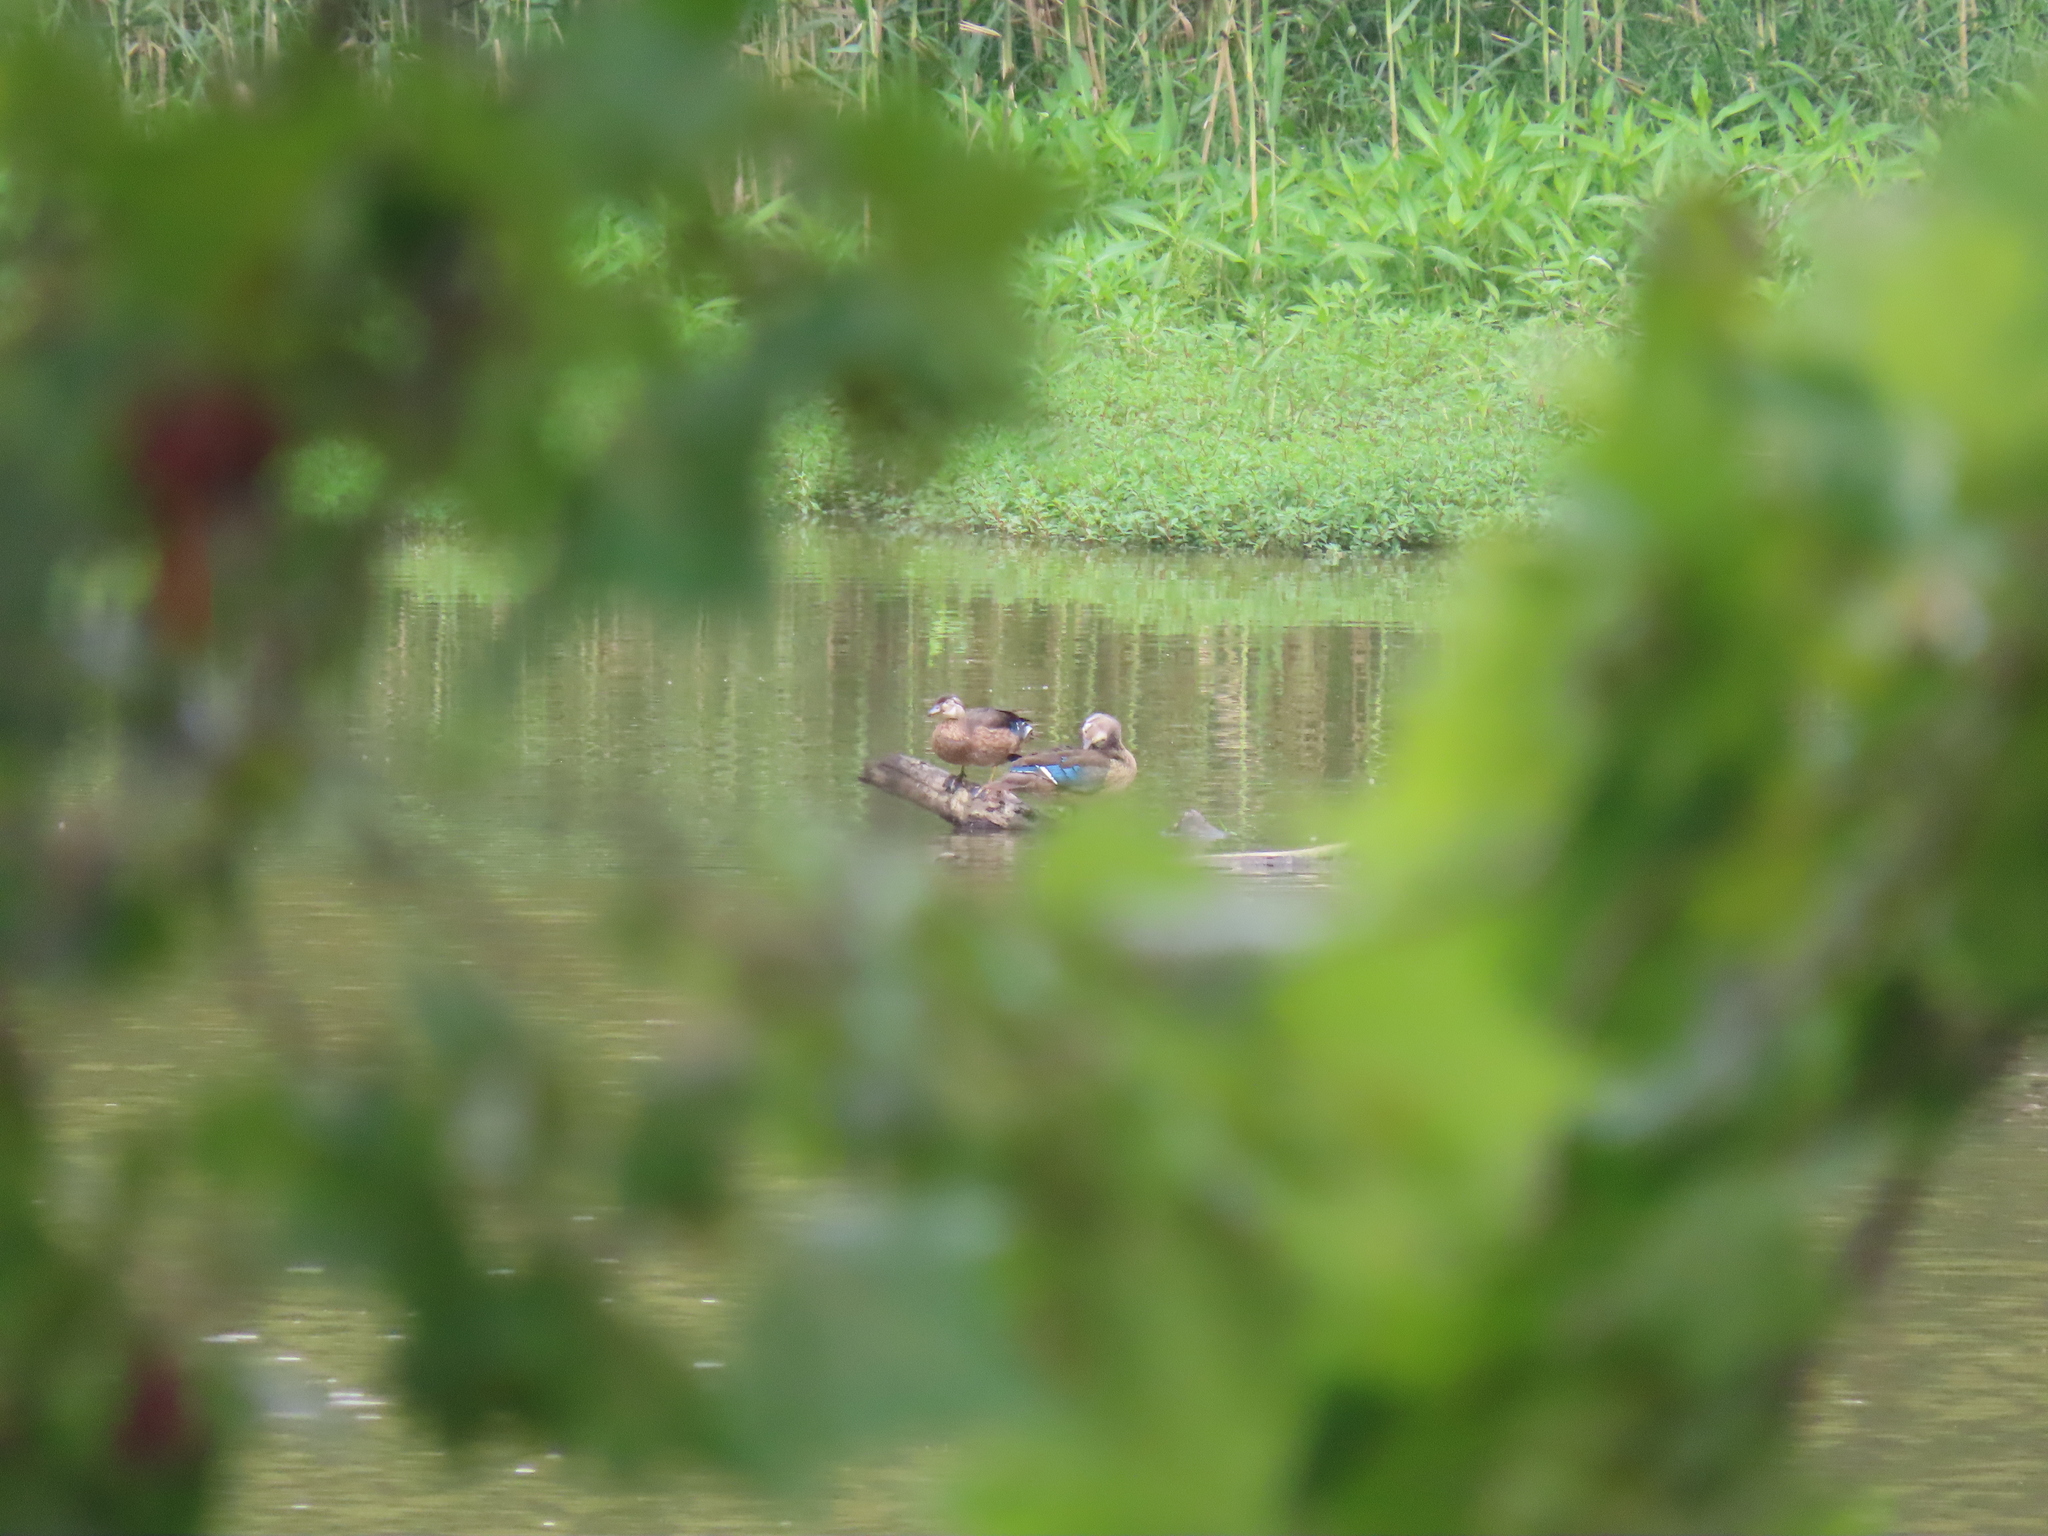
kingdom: Animalia
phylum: Chordata
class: Aves
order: Anseriformes
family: Anatidae
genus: Aix
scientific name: Aix sponsa
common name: Wood duck
